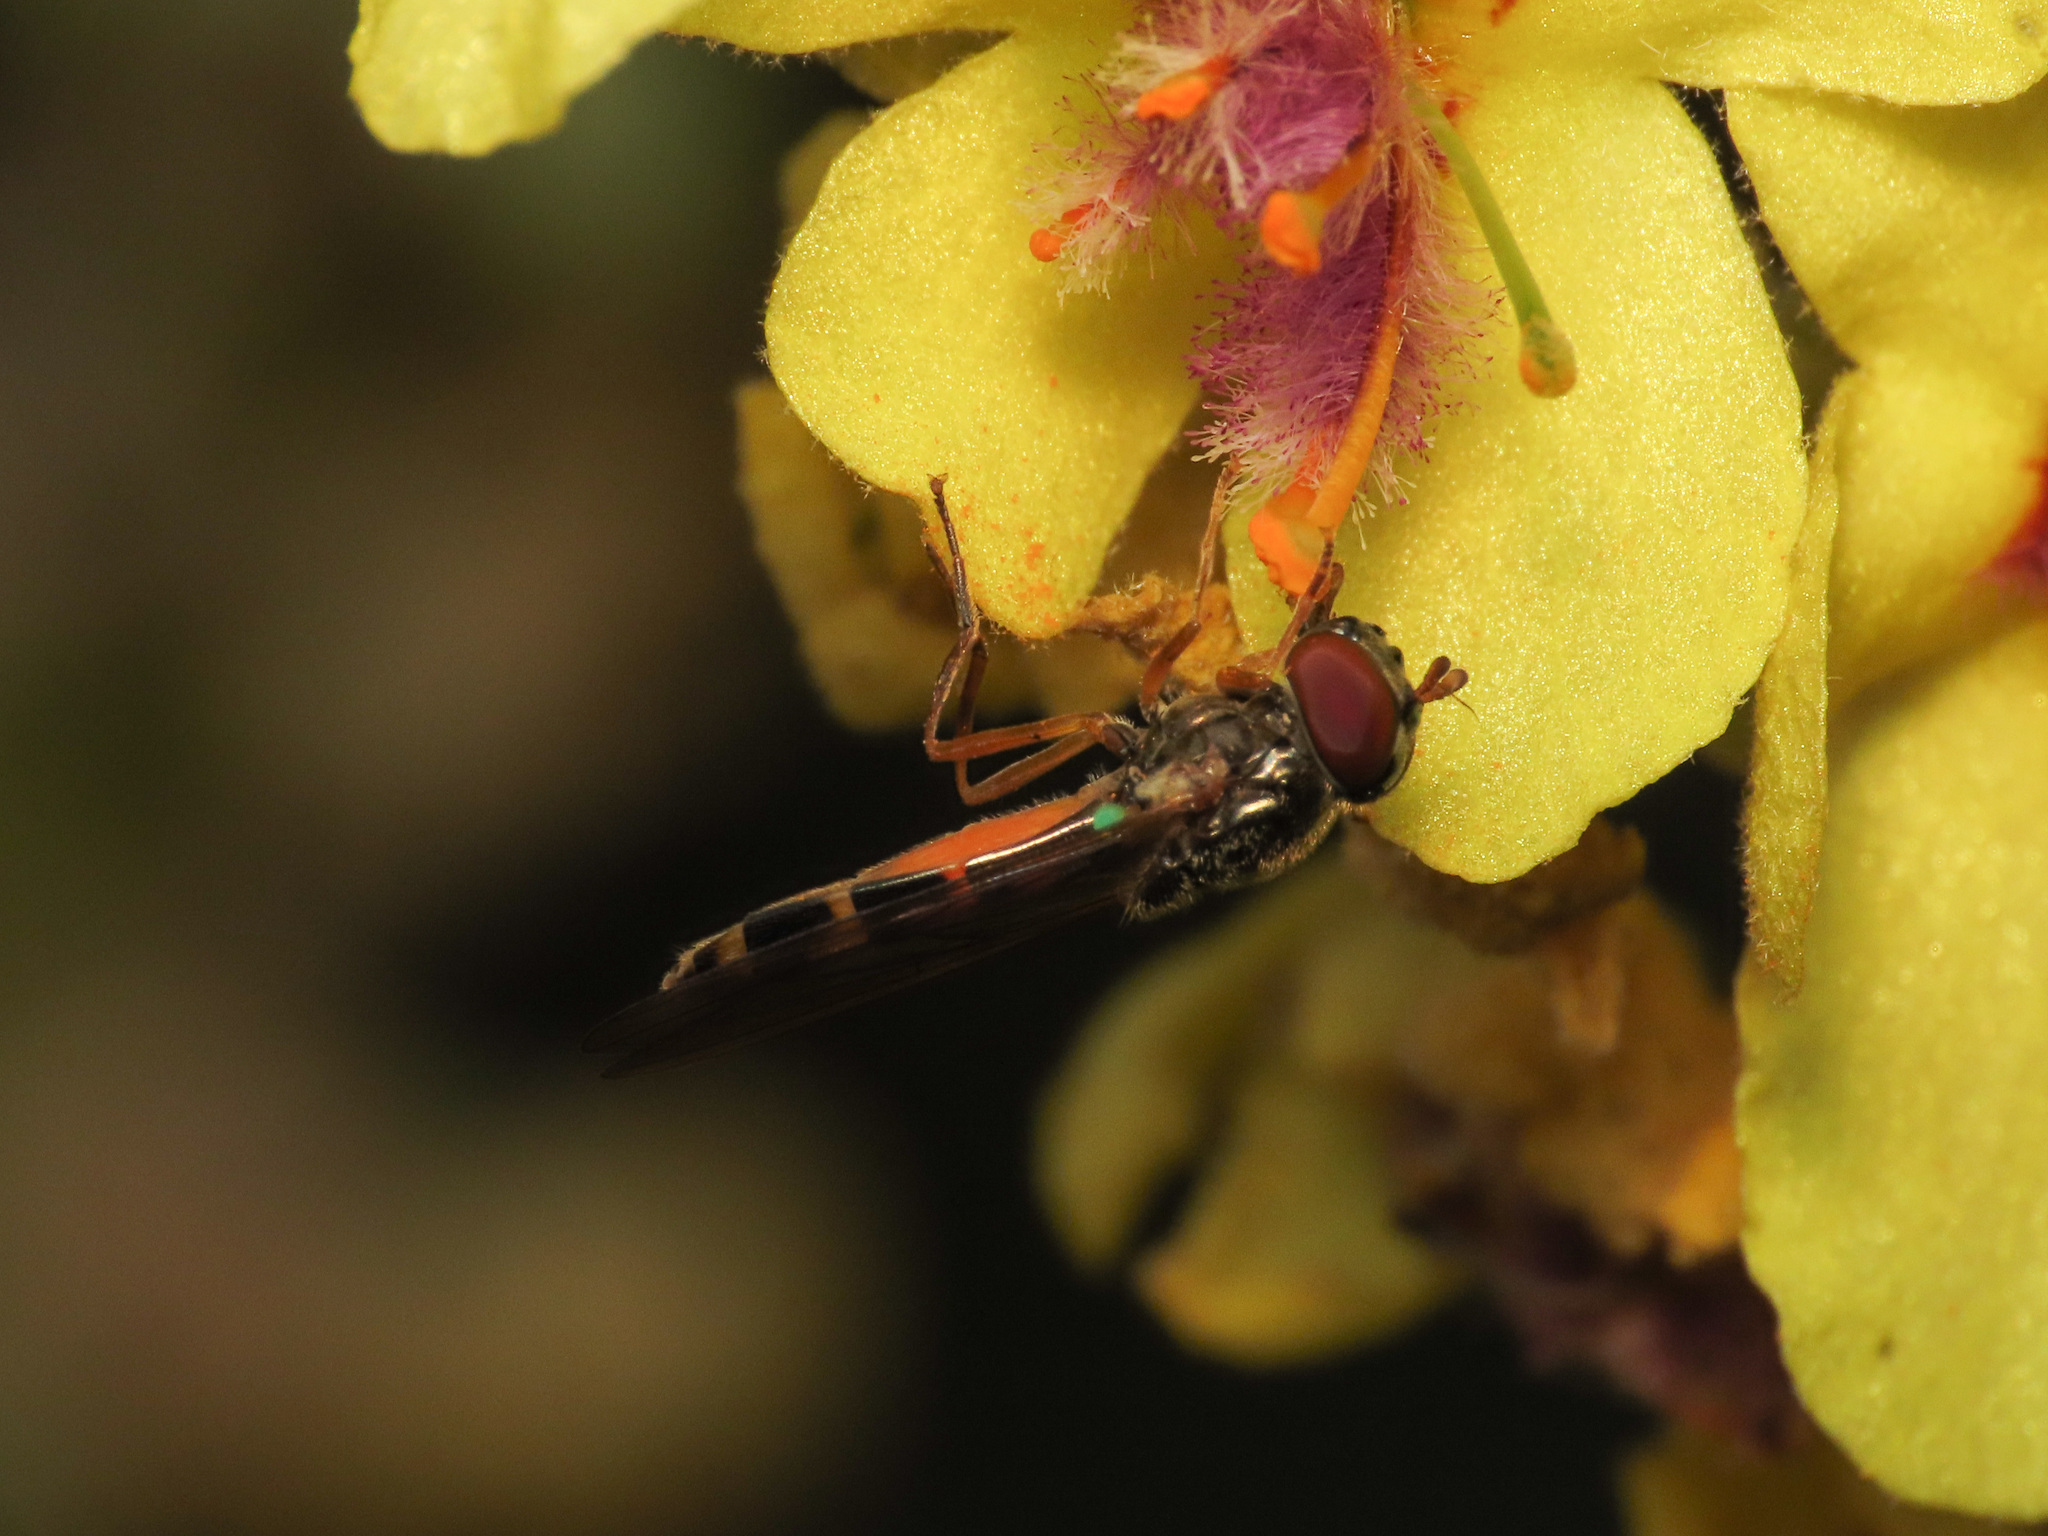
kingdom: Animalia
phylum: Arthropoda
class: Insecta
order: Diptera
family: Syrphidae
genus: Melanostoma
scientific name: Melanostoma scalare
